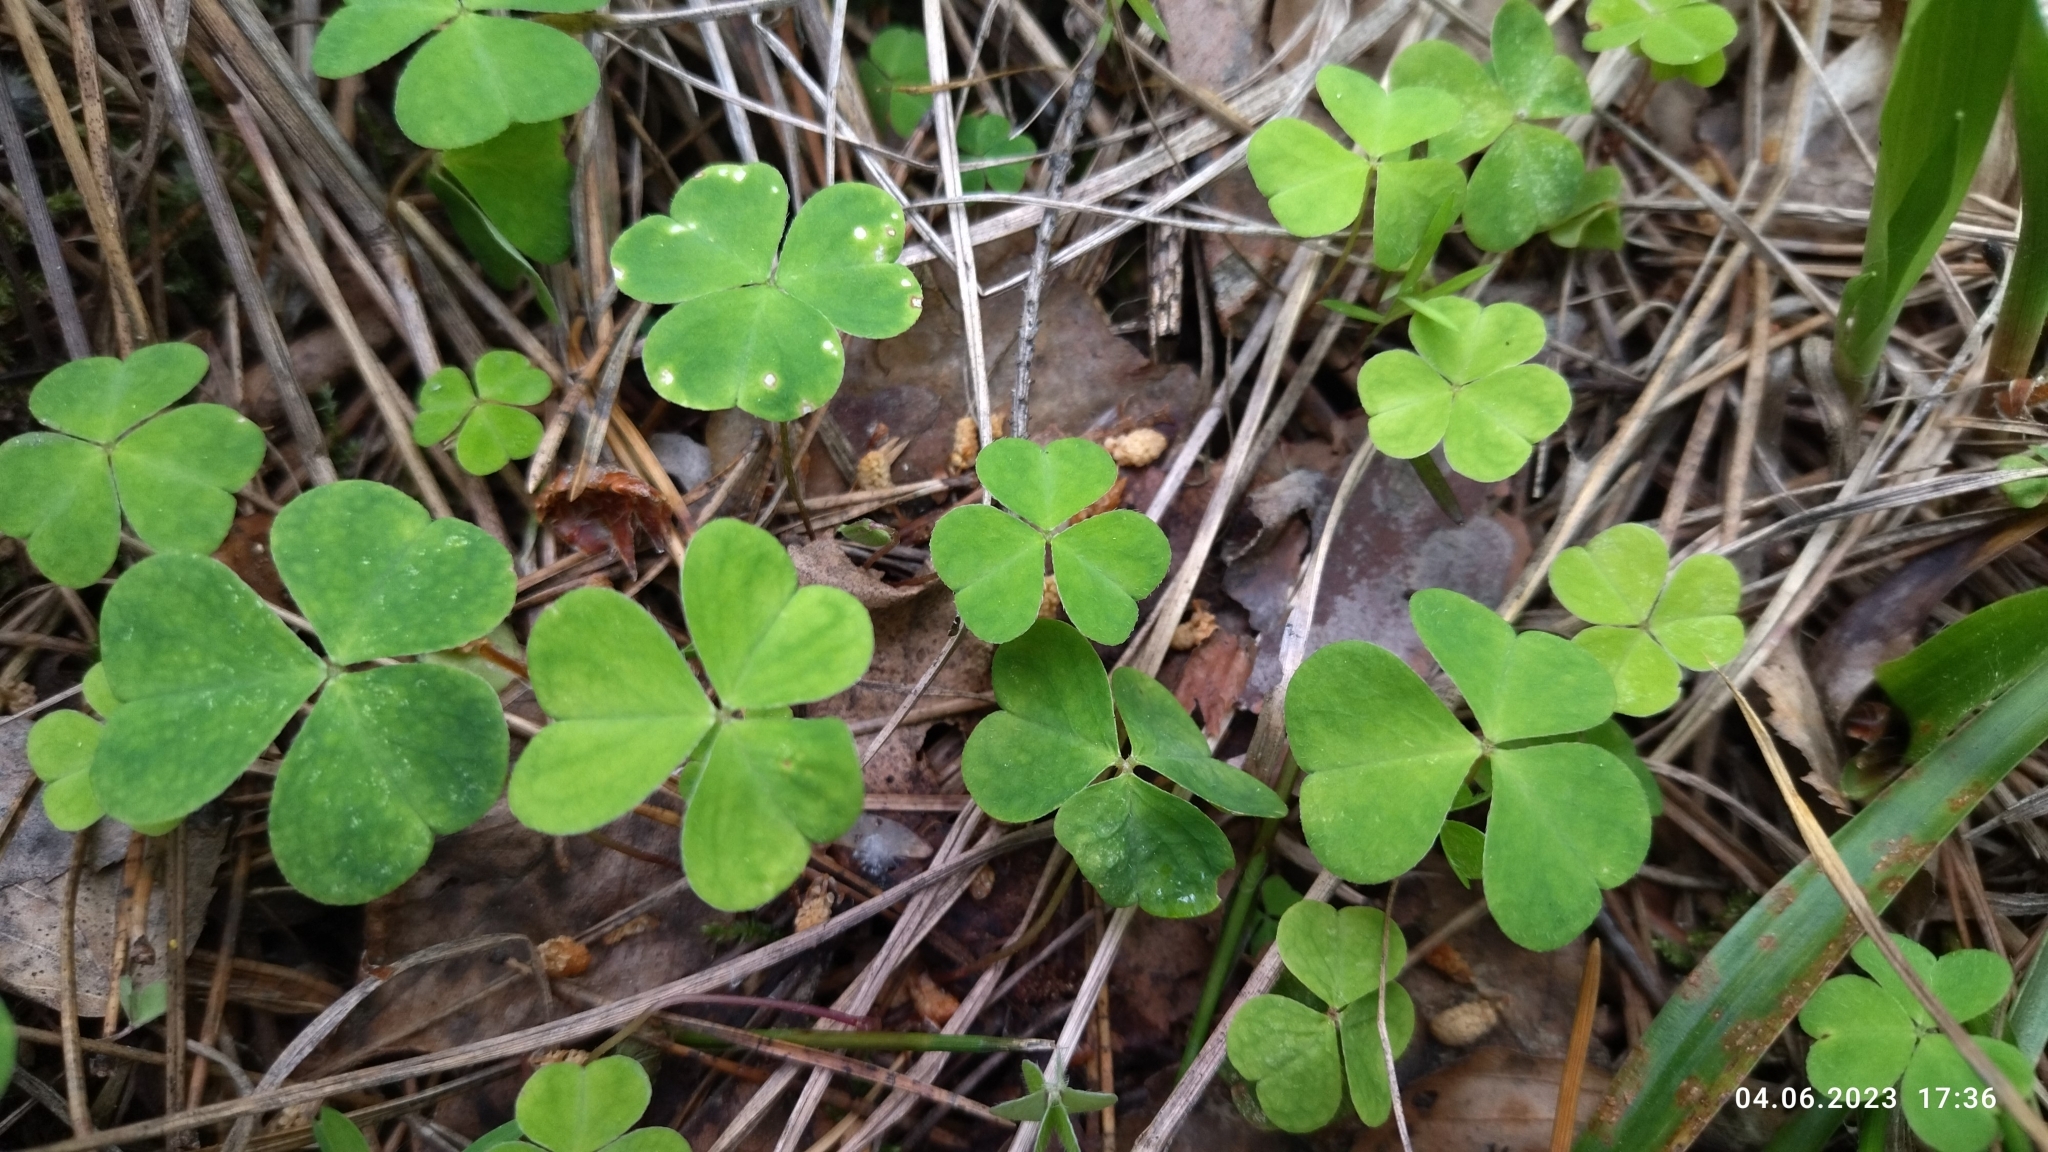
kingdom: Plantae
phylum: Tracheophyta
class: Magnoliopsida
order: Oxalidales
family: Oxalidaceae
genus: Oxalis
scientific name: Oxalis acetosella
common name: Wood-sorrel
